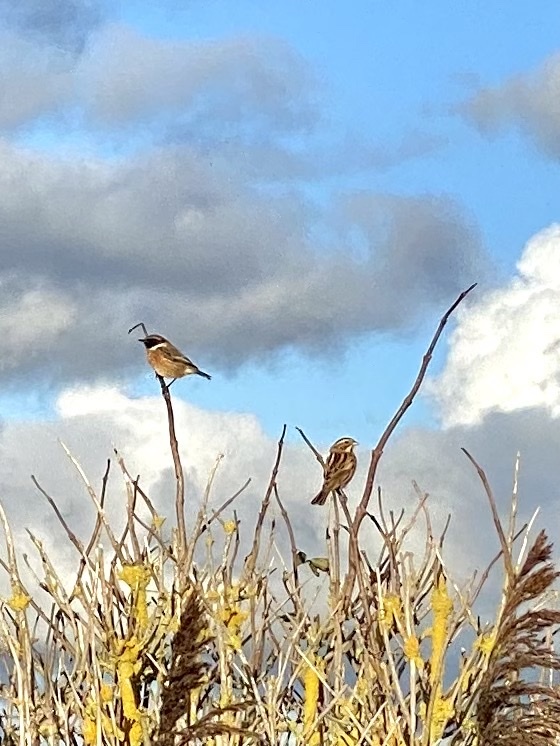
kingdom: Animalia
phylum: Chordata
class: Aves
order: Passeriformes
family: Muscicapidae
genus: Saxicola
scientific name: Saxicola rubicola
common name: European stonechat
